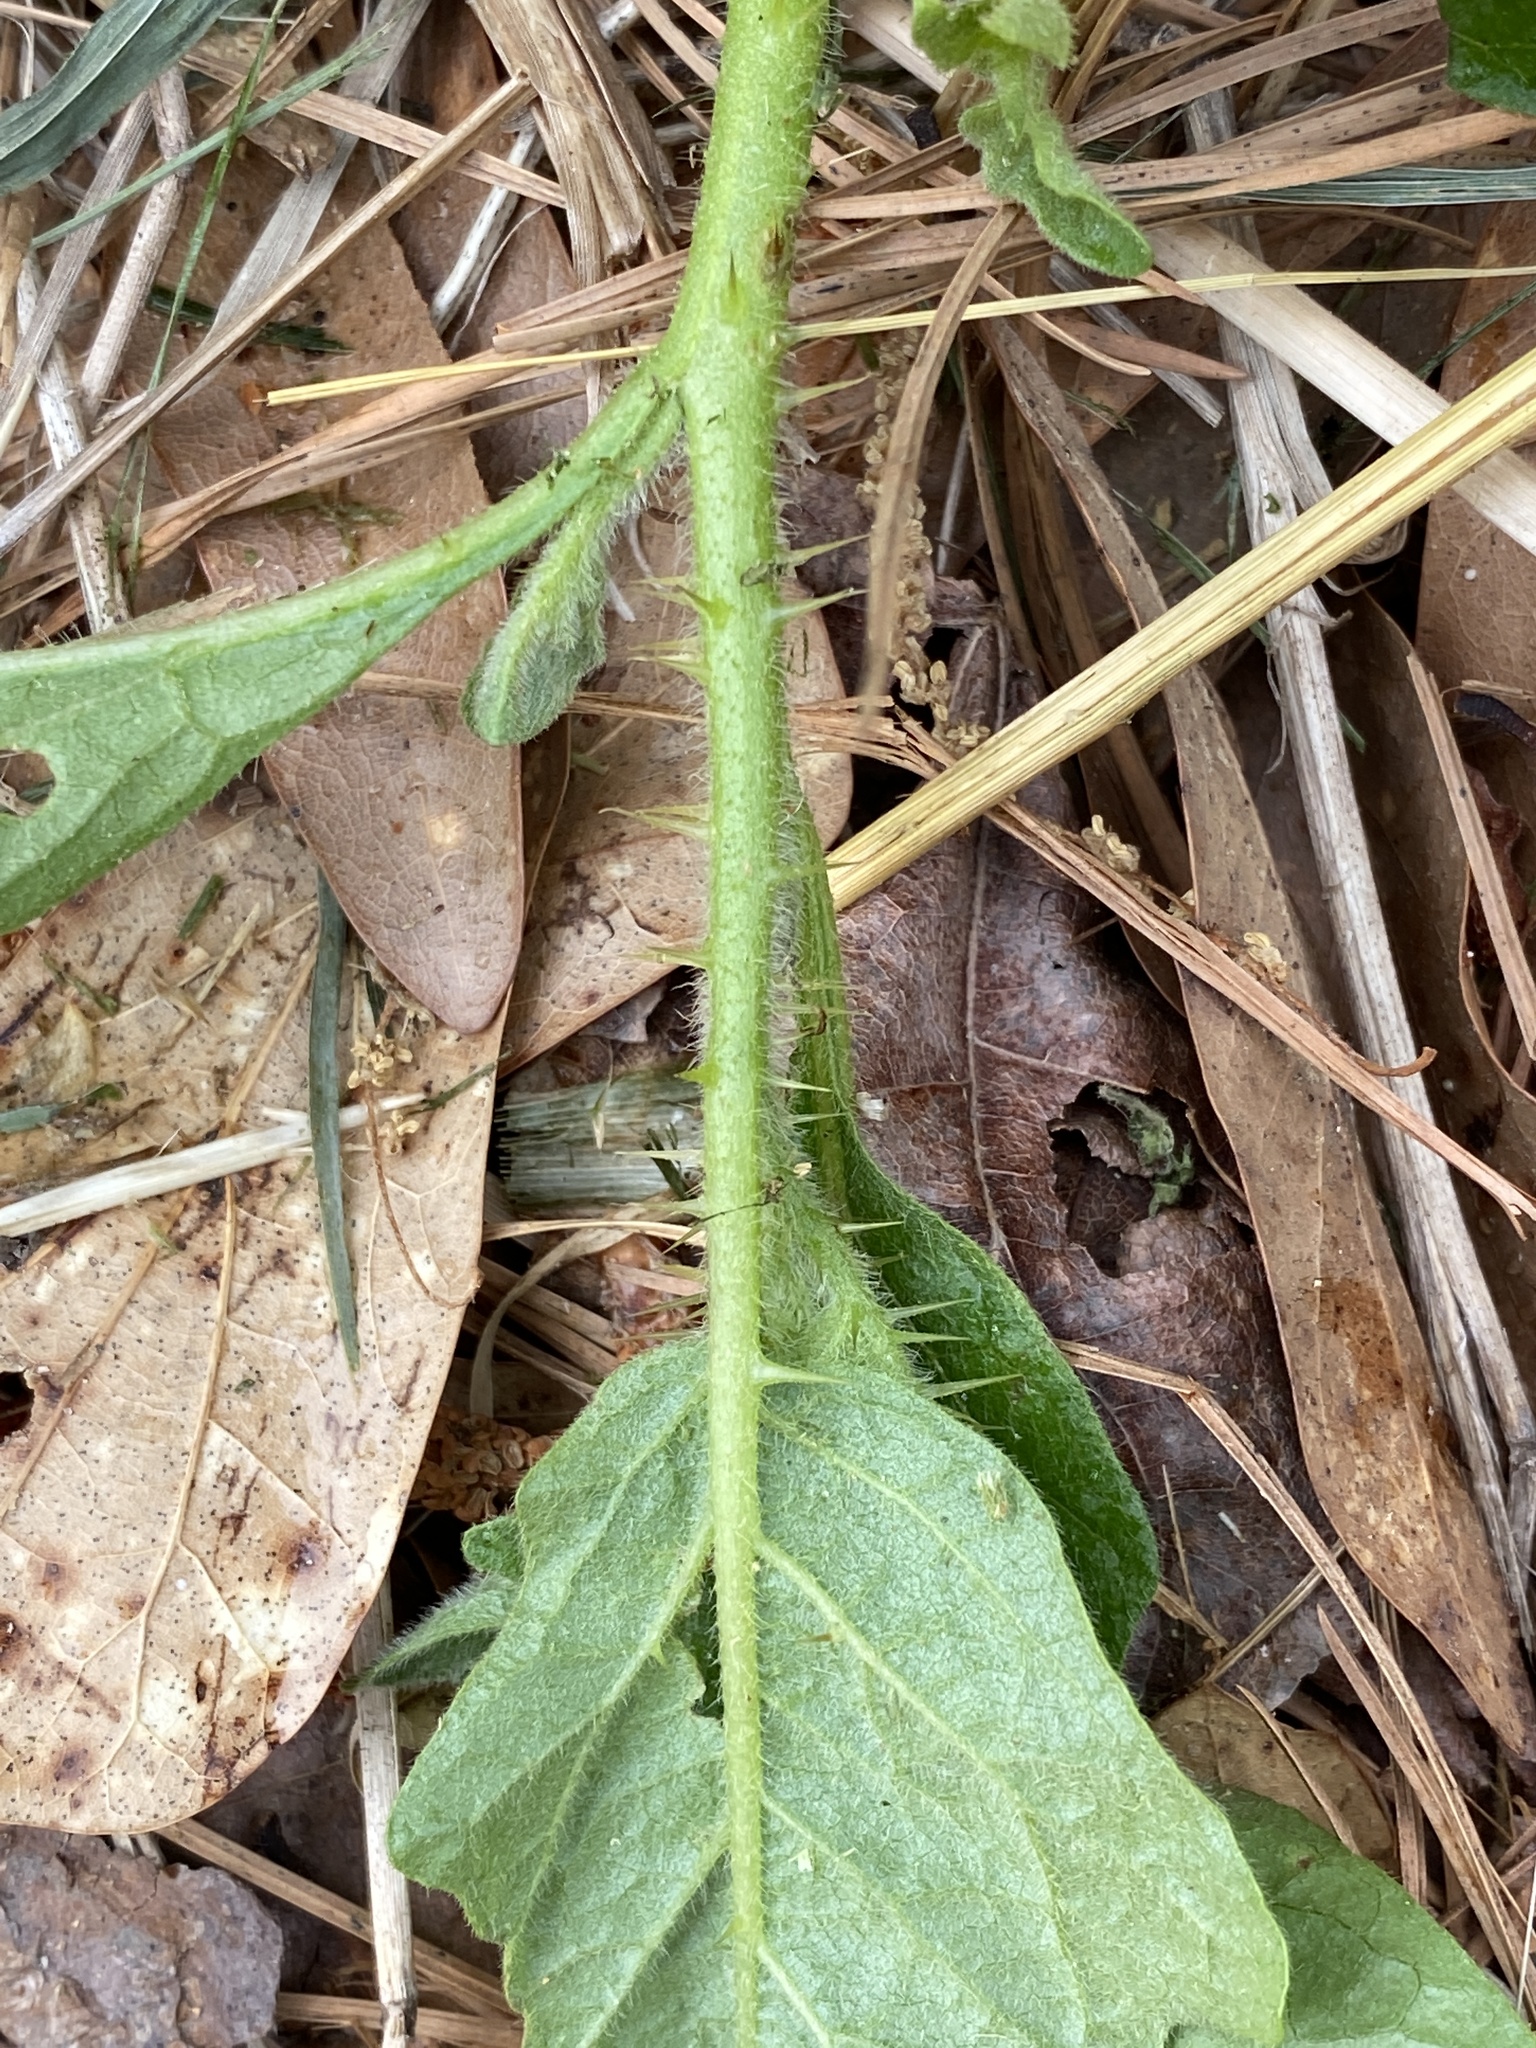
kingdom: Plantae
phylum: Tracheophyta
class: Magnoliopsida
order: Solanales
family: Solanaceae
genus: Solanum
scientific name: Solanum carolinense
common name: Horse-nettle
